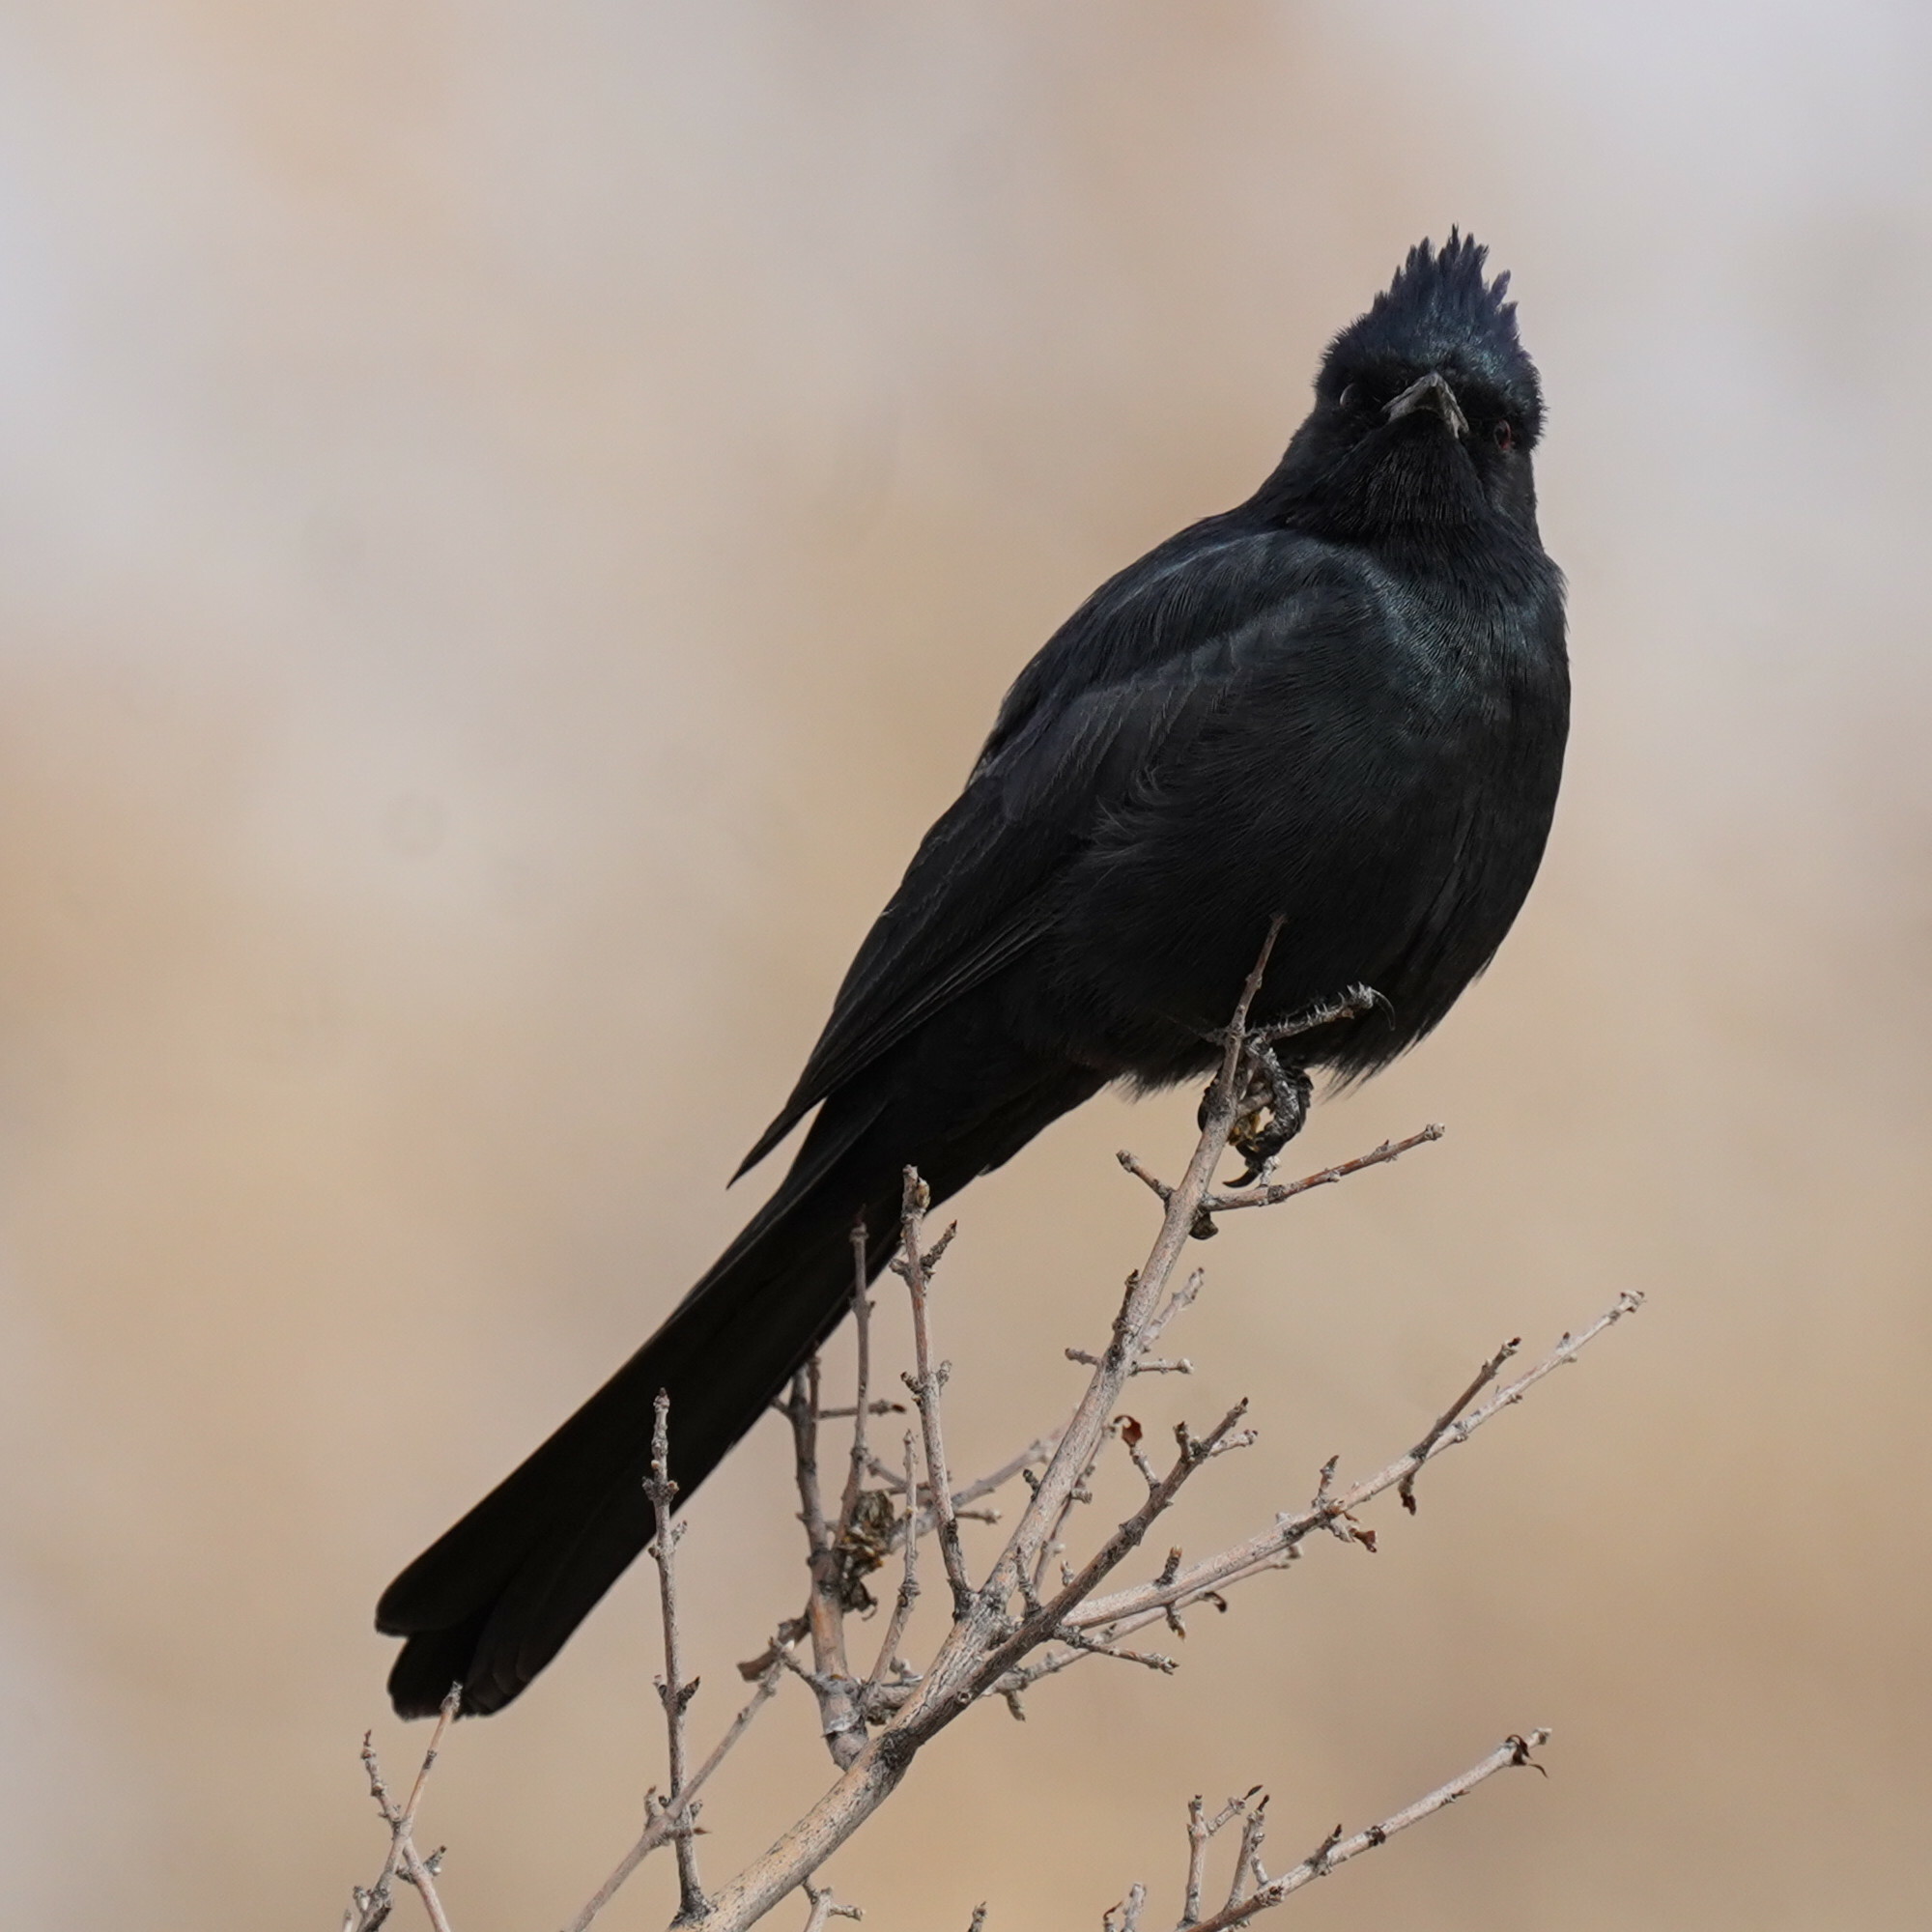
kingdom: Animalia
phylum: Chordata
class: Aves
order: Passeriformes
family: Ptilogonatidae
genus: Phainopepla
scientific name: Phainopepla nitens
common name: Phainopepla
